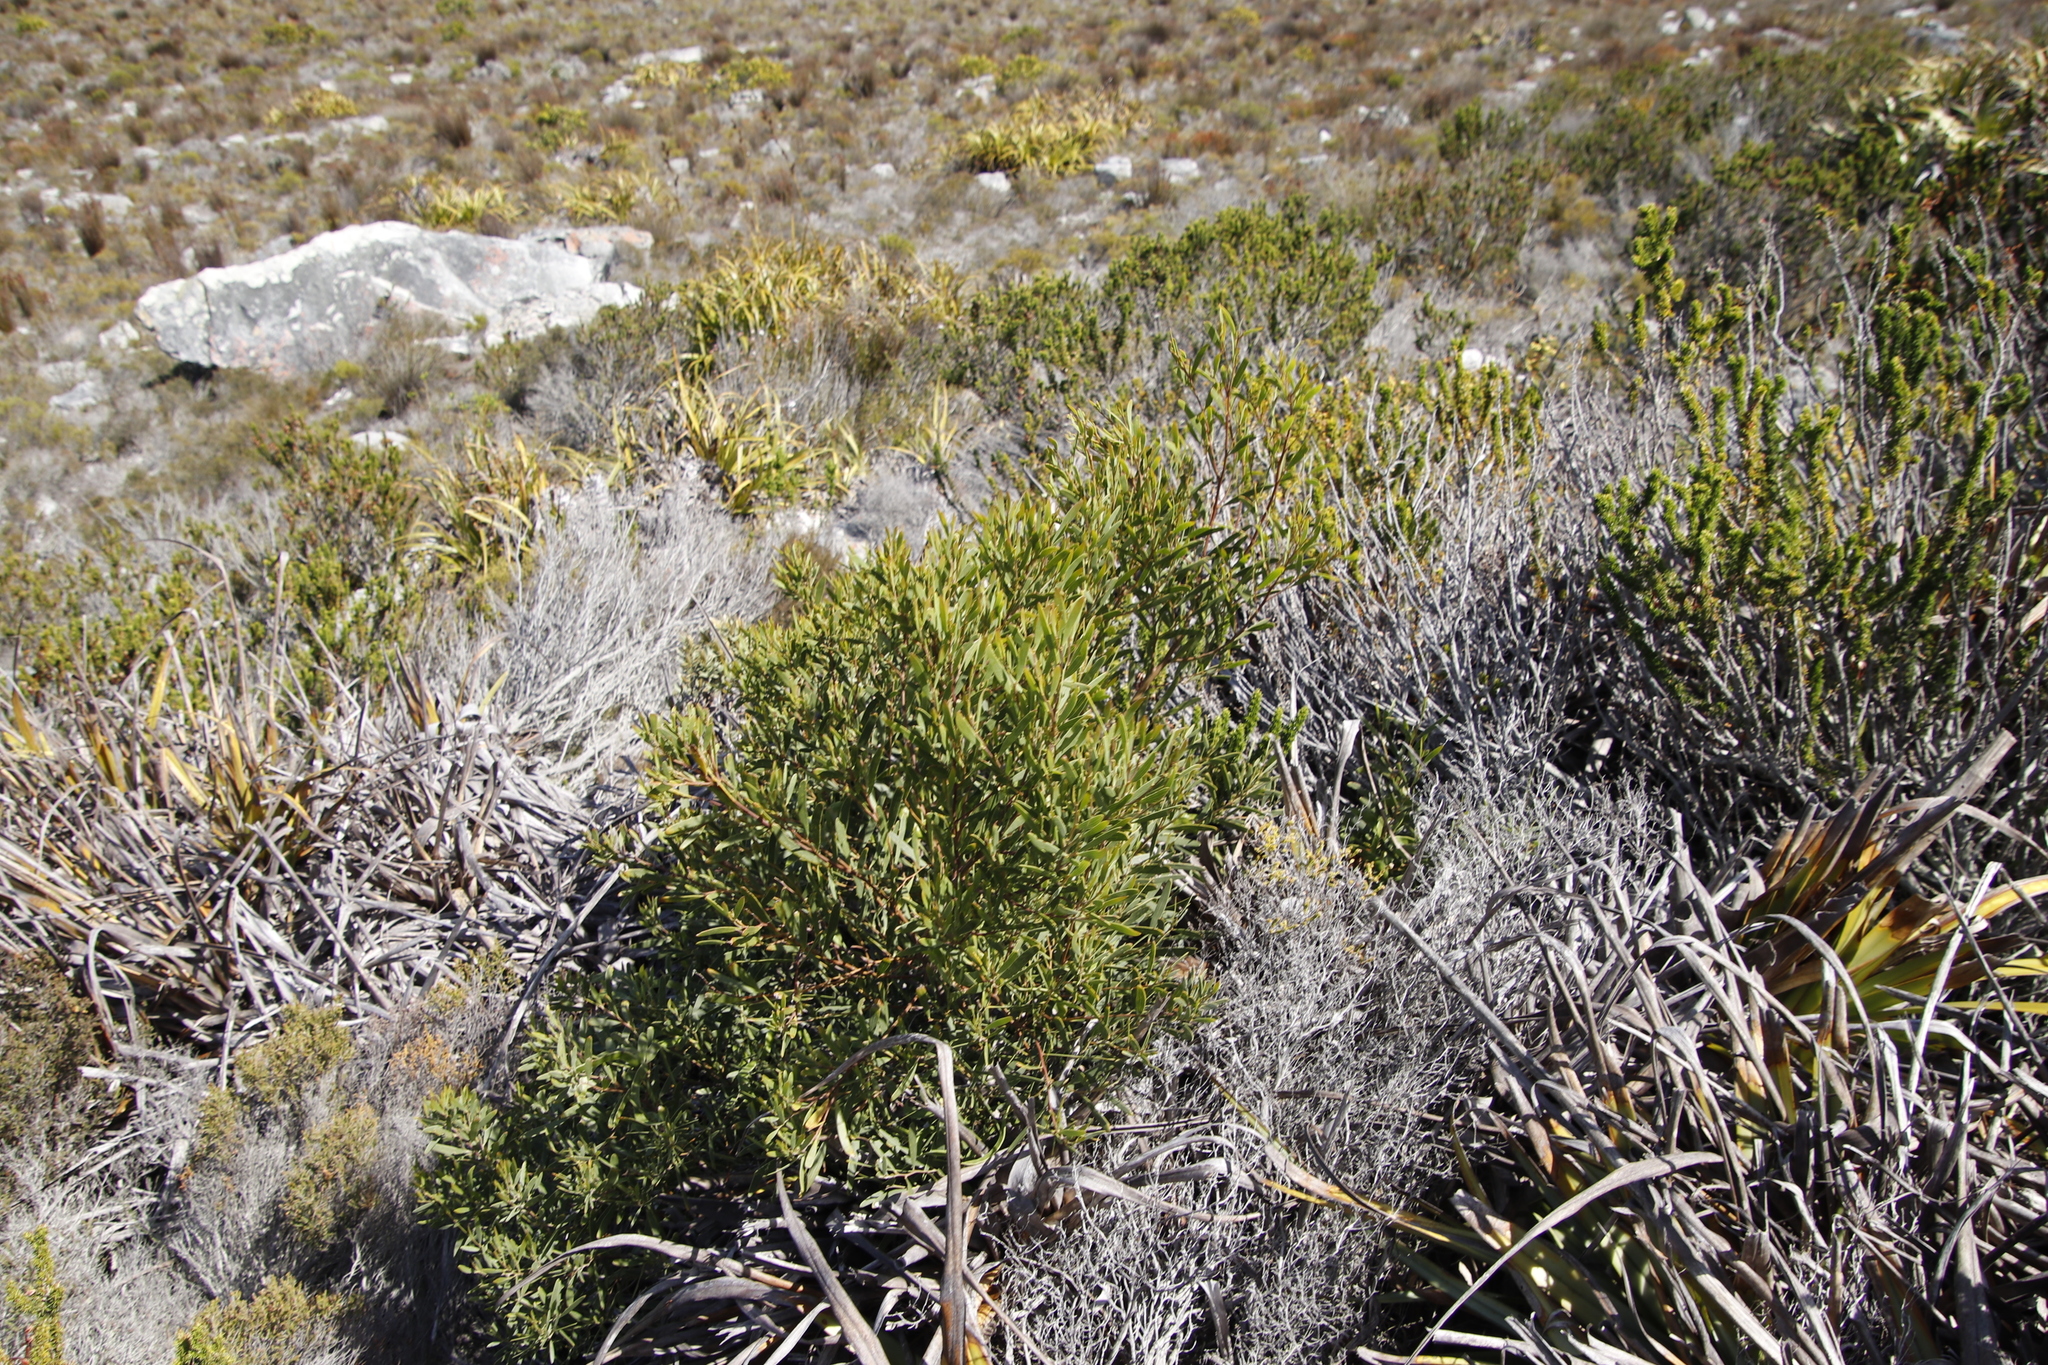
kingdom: Plantae
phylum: Tracheophyta
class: Magnoliopsida
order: Fabales
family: Fabaceae
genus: Acacia
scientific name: Acacia cyclops
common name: Coastal wattle
